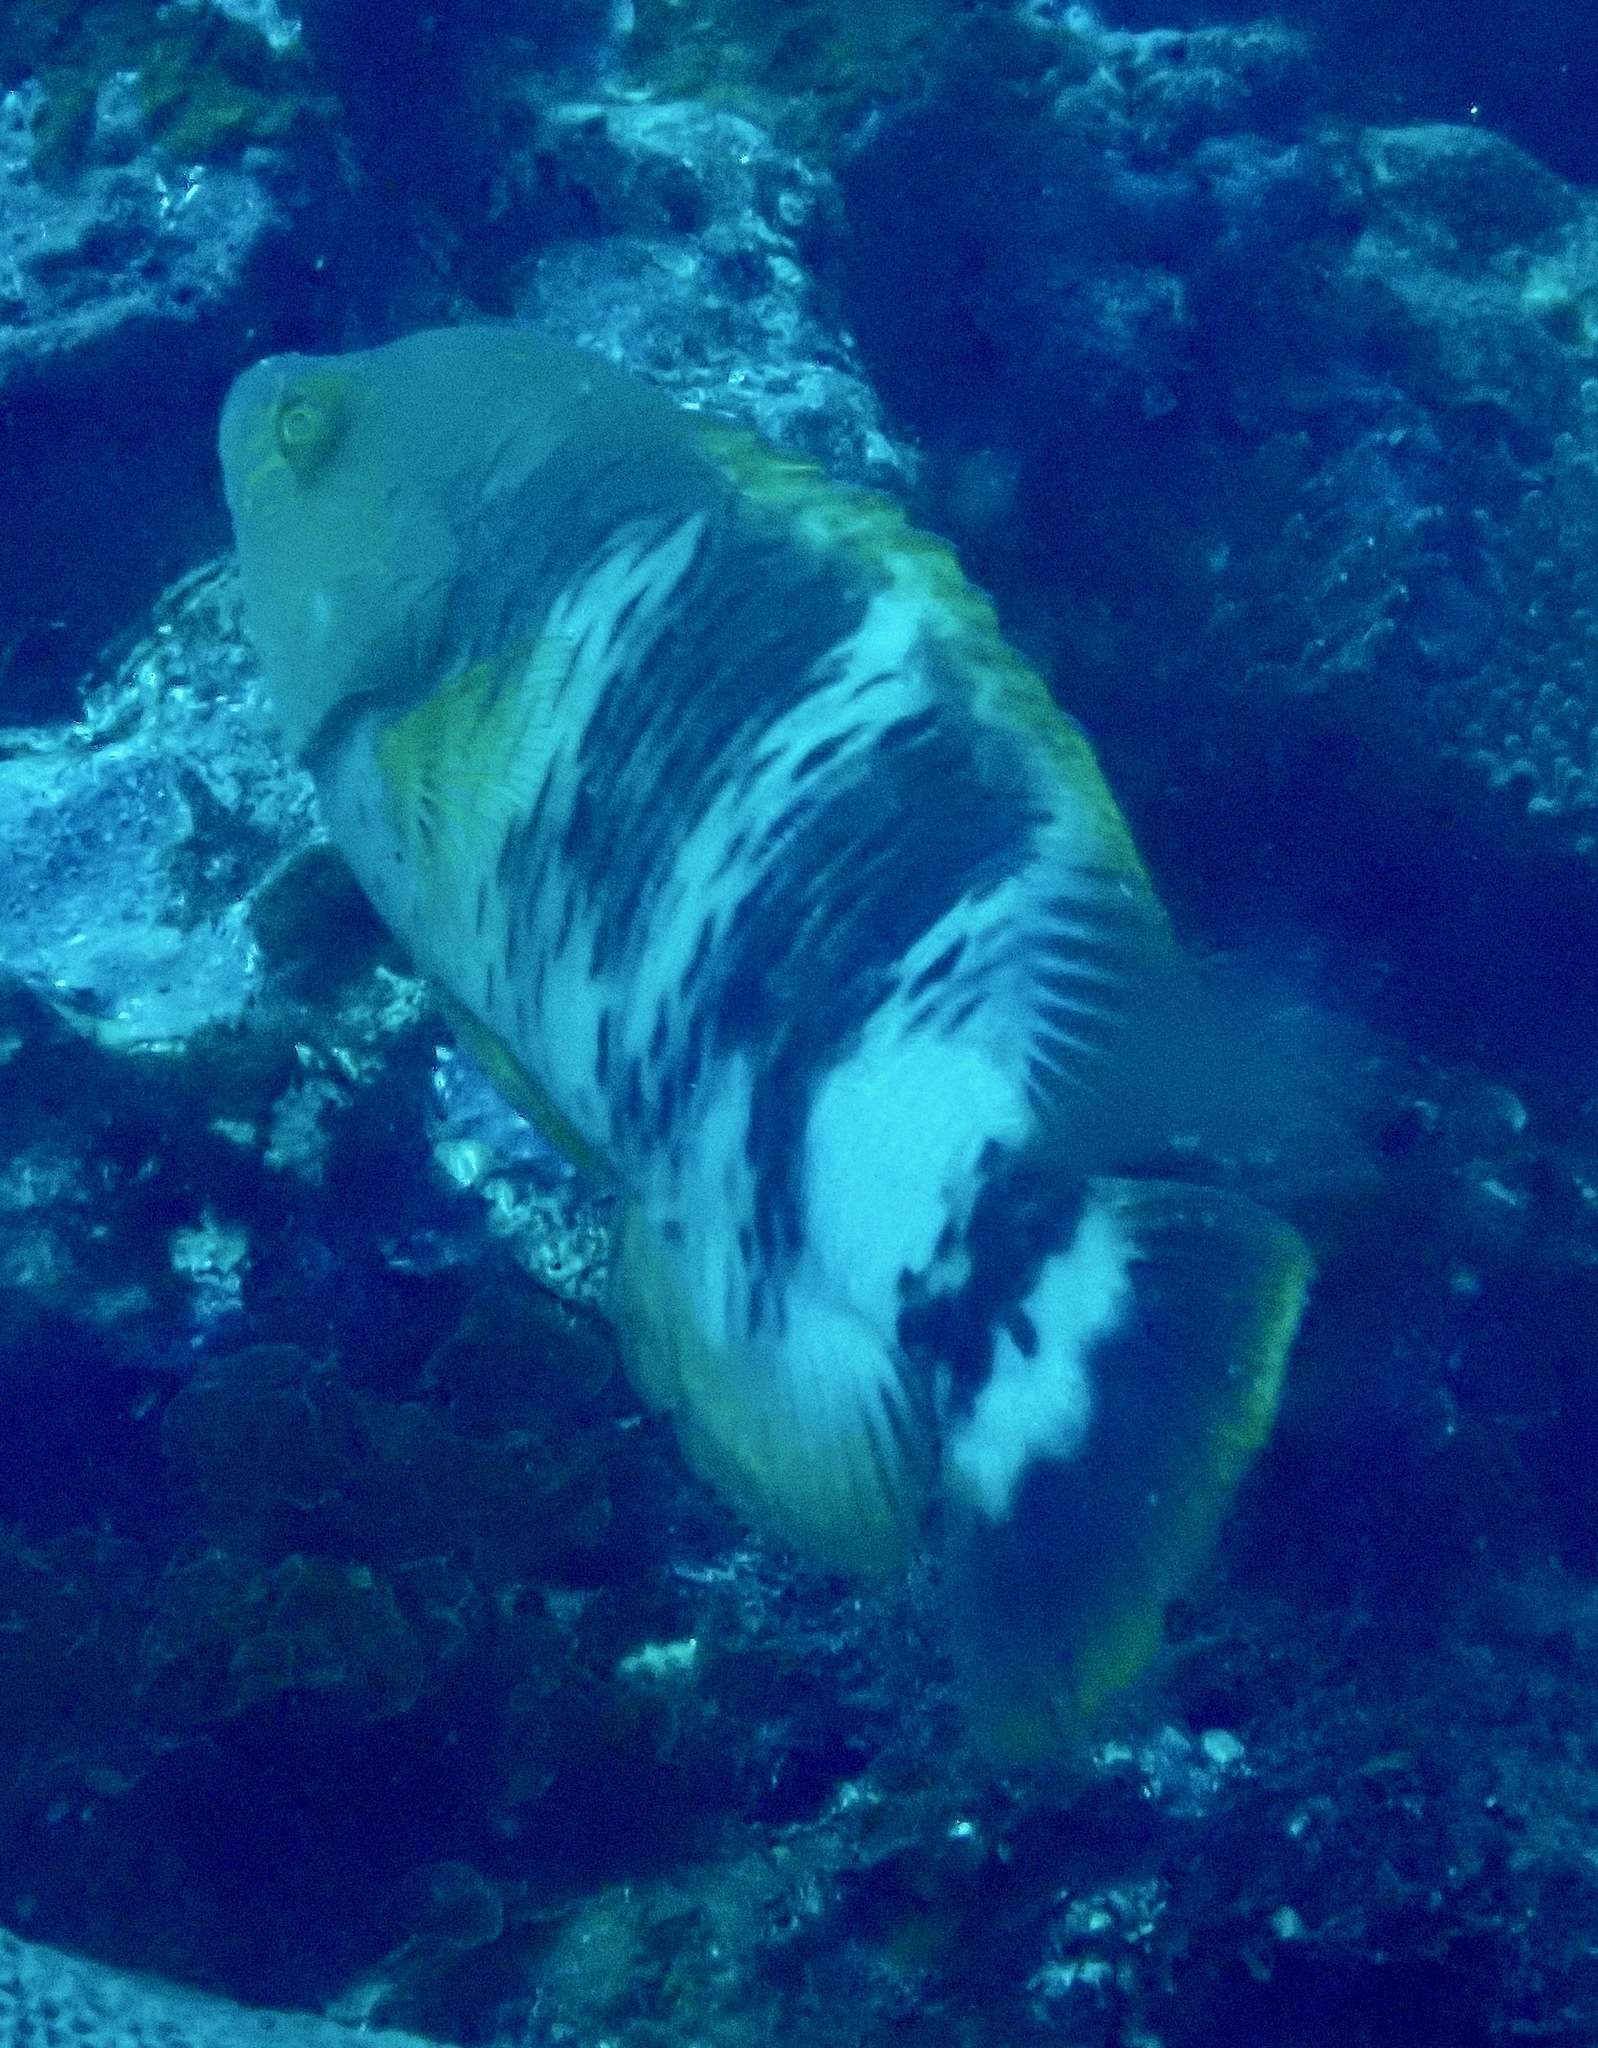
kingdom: Animalia
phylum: Chordata
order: Perciformes
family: Labridae
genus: Cheilinus
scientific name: Cheilinus trilobatus
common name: Tripletail maori wrasse
